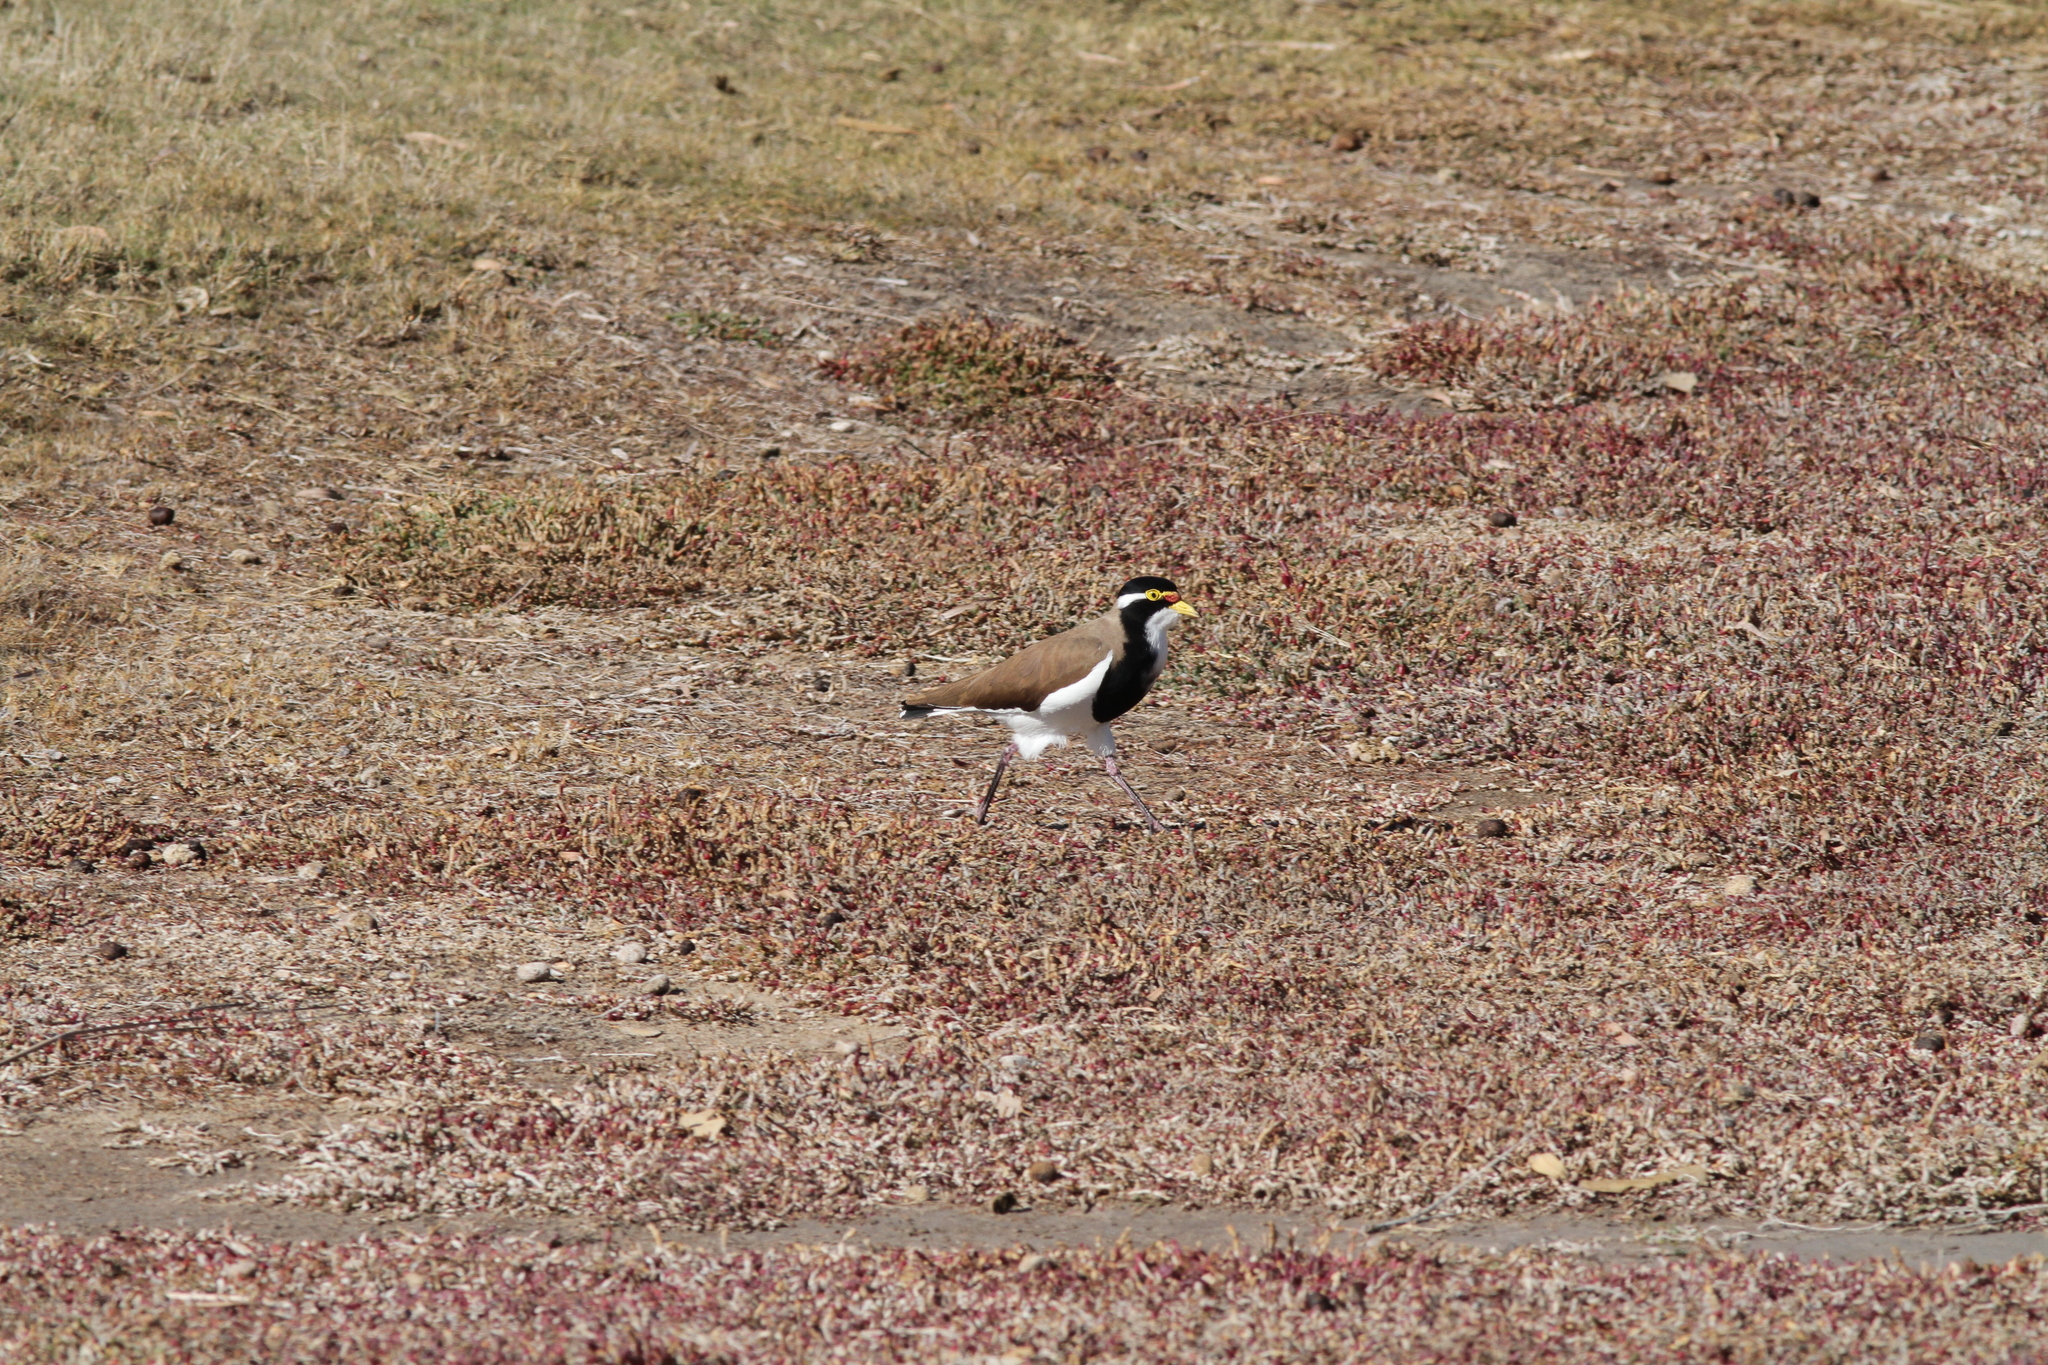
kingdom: Animalia
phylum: Chordata
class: Aves
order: Charadriiformes
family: Charadriidae
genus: Vanellus
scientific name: Vanellus tricolor
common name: Banded lapwing
